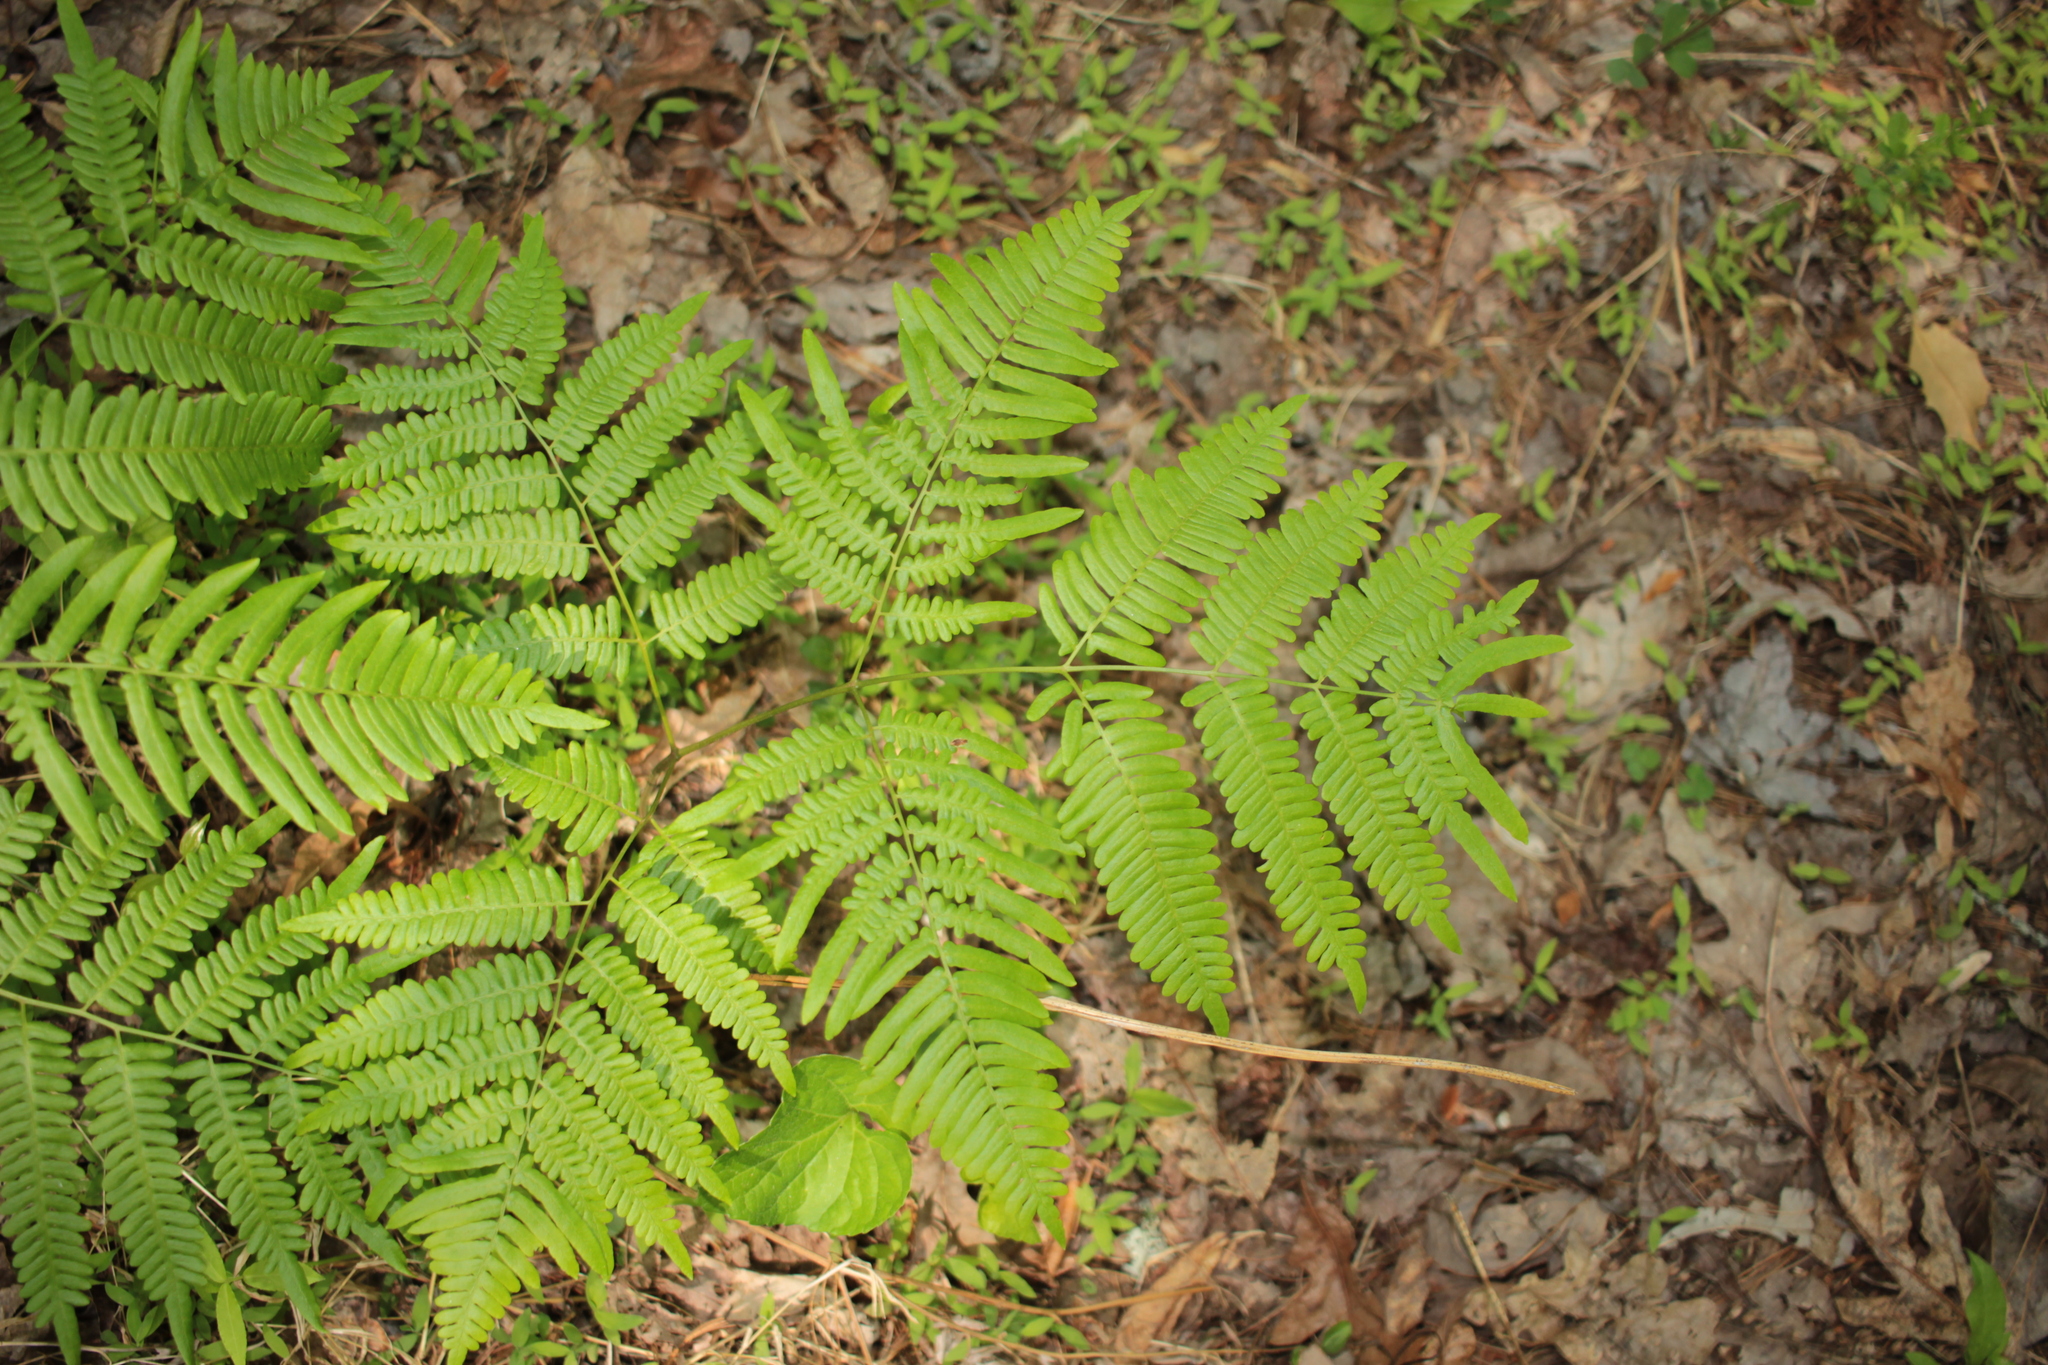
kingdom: Plantae
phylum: Tracheophyta
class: Polypodiopsida
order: Polypodiales
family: Dennstaedtiaceae
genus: Pteridium
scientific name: Pteridium
